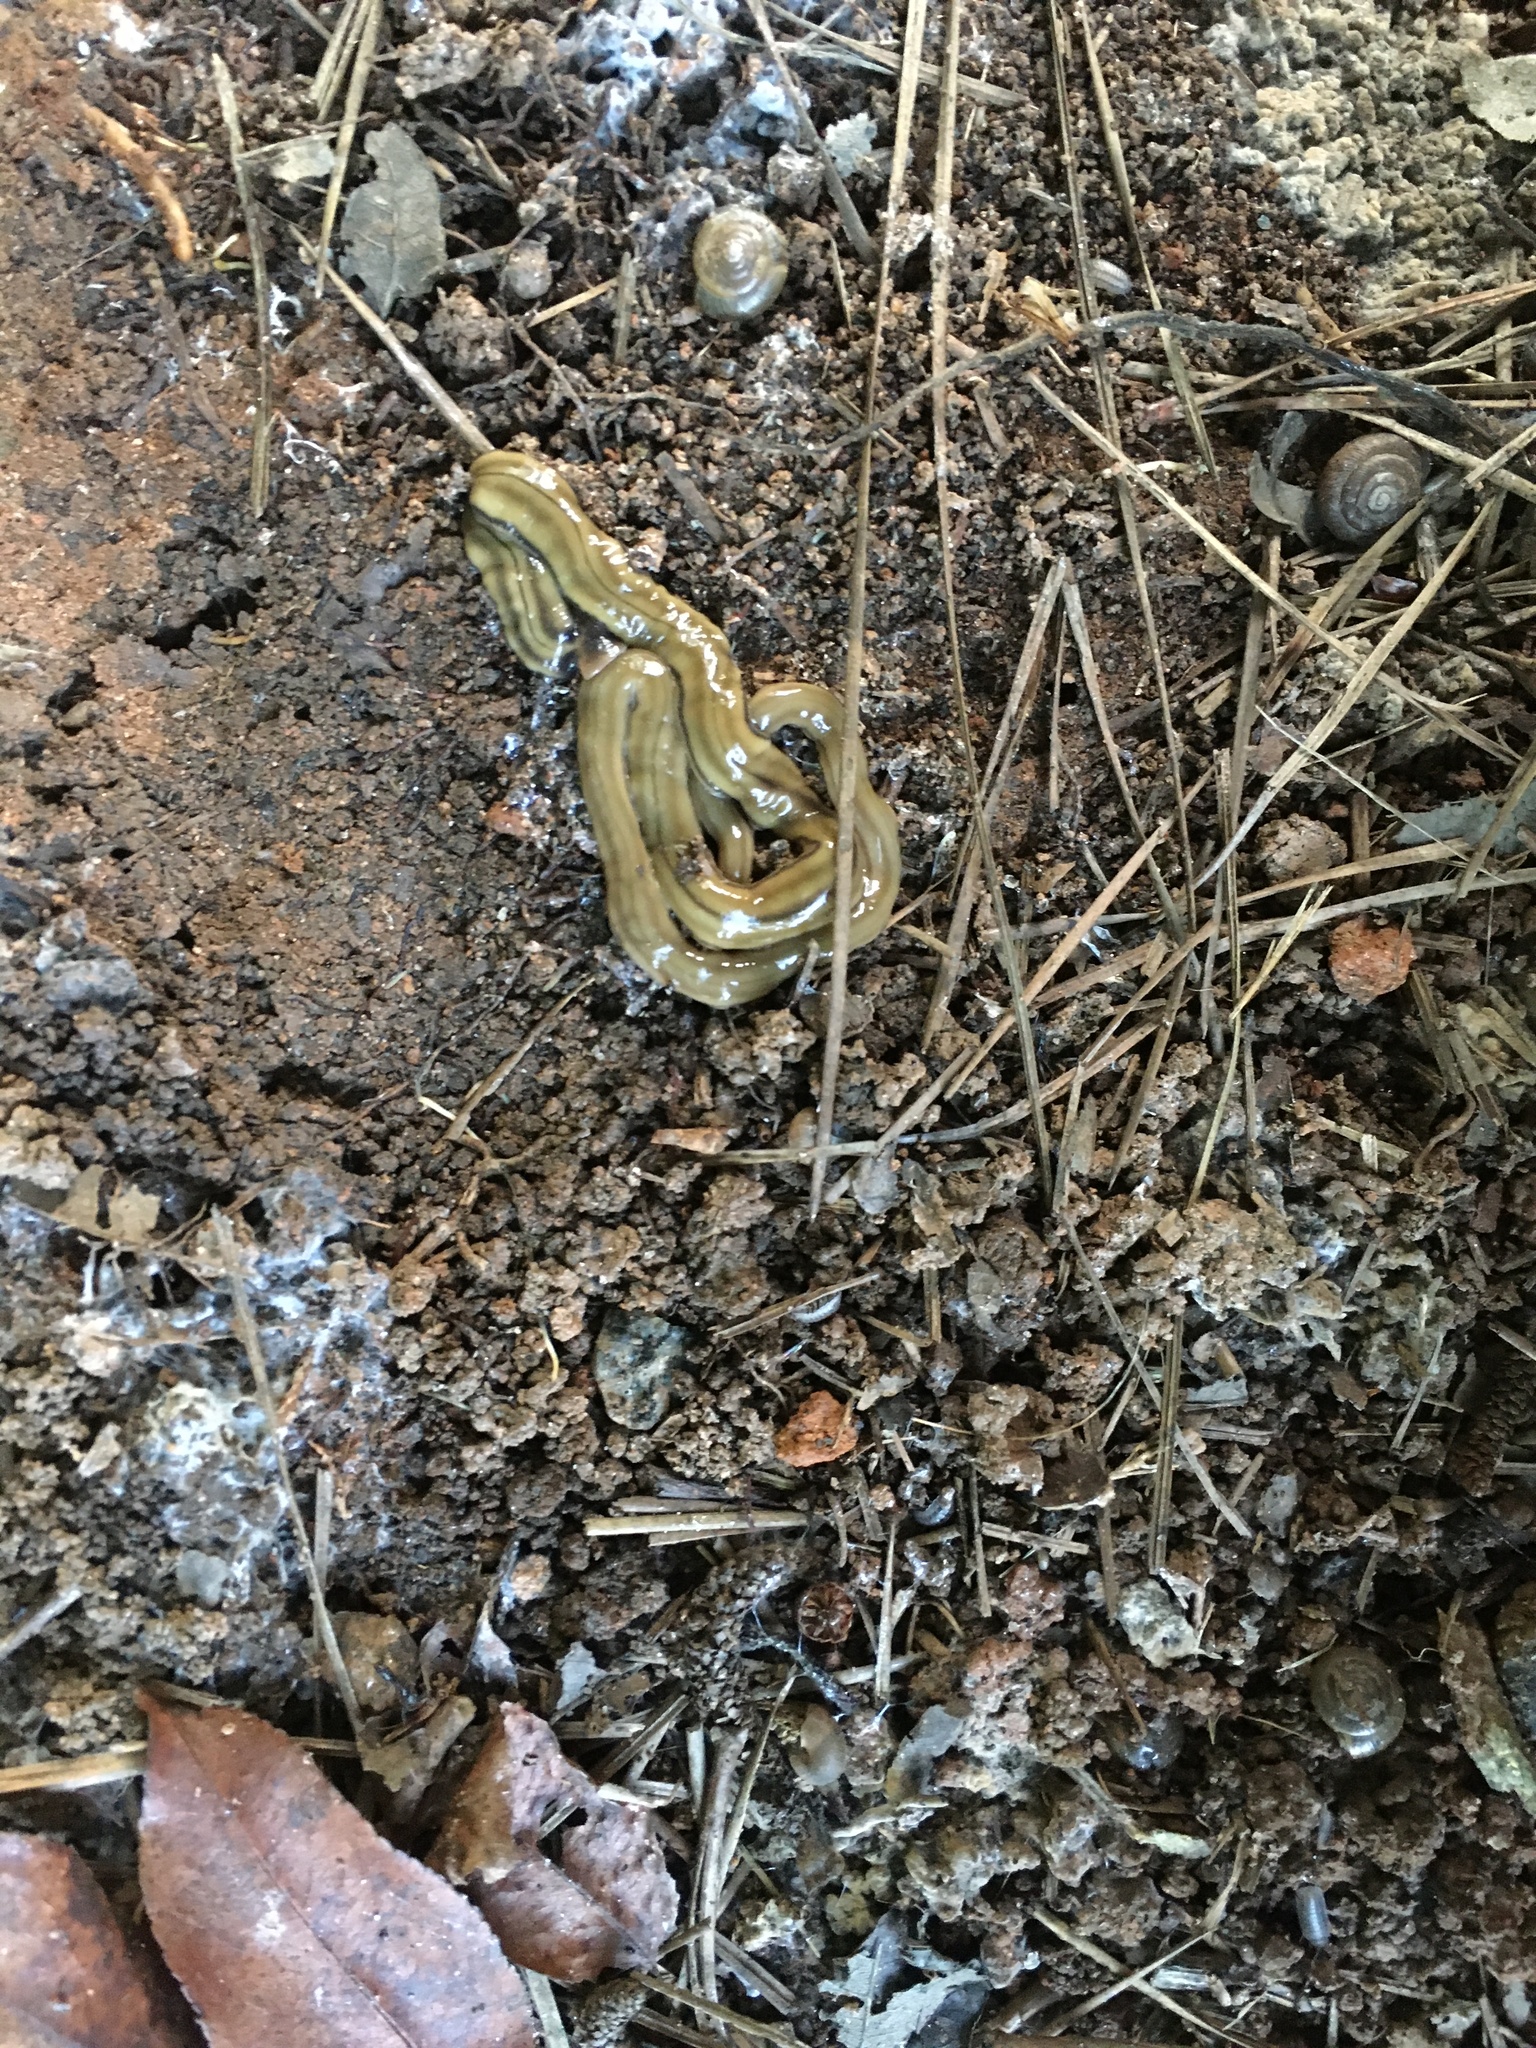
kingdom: Animalia
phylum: Platyhelminthes
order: Tricladida
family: Geoplanidae
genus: Bipalium
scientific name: Bipalium kewense
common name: Hammerhead flatworm
